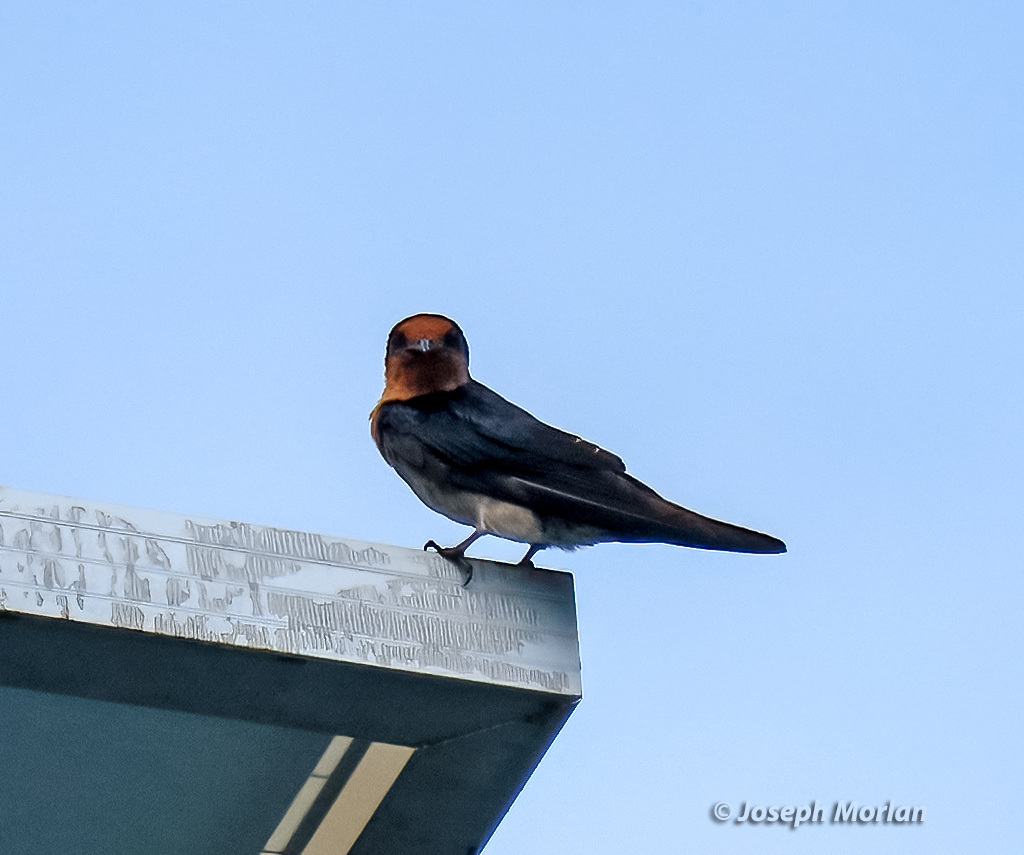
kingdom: Animalia
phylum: Chordata
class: Aves
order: Passeriformes
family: Hirundinidae
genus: Hirundo
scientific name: Hirundo tahitica
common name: Pacific swallow
